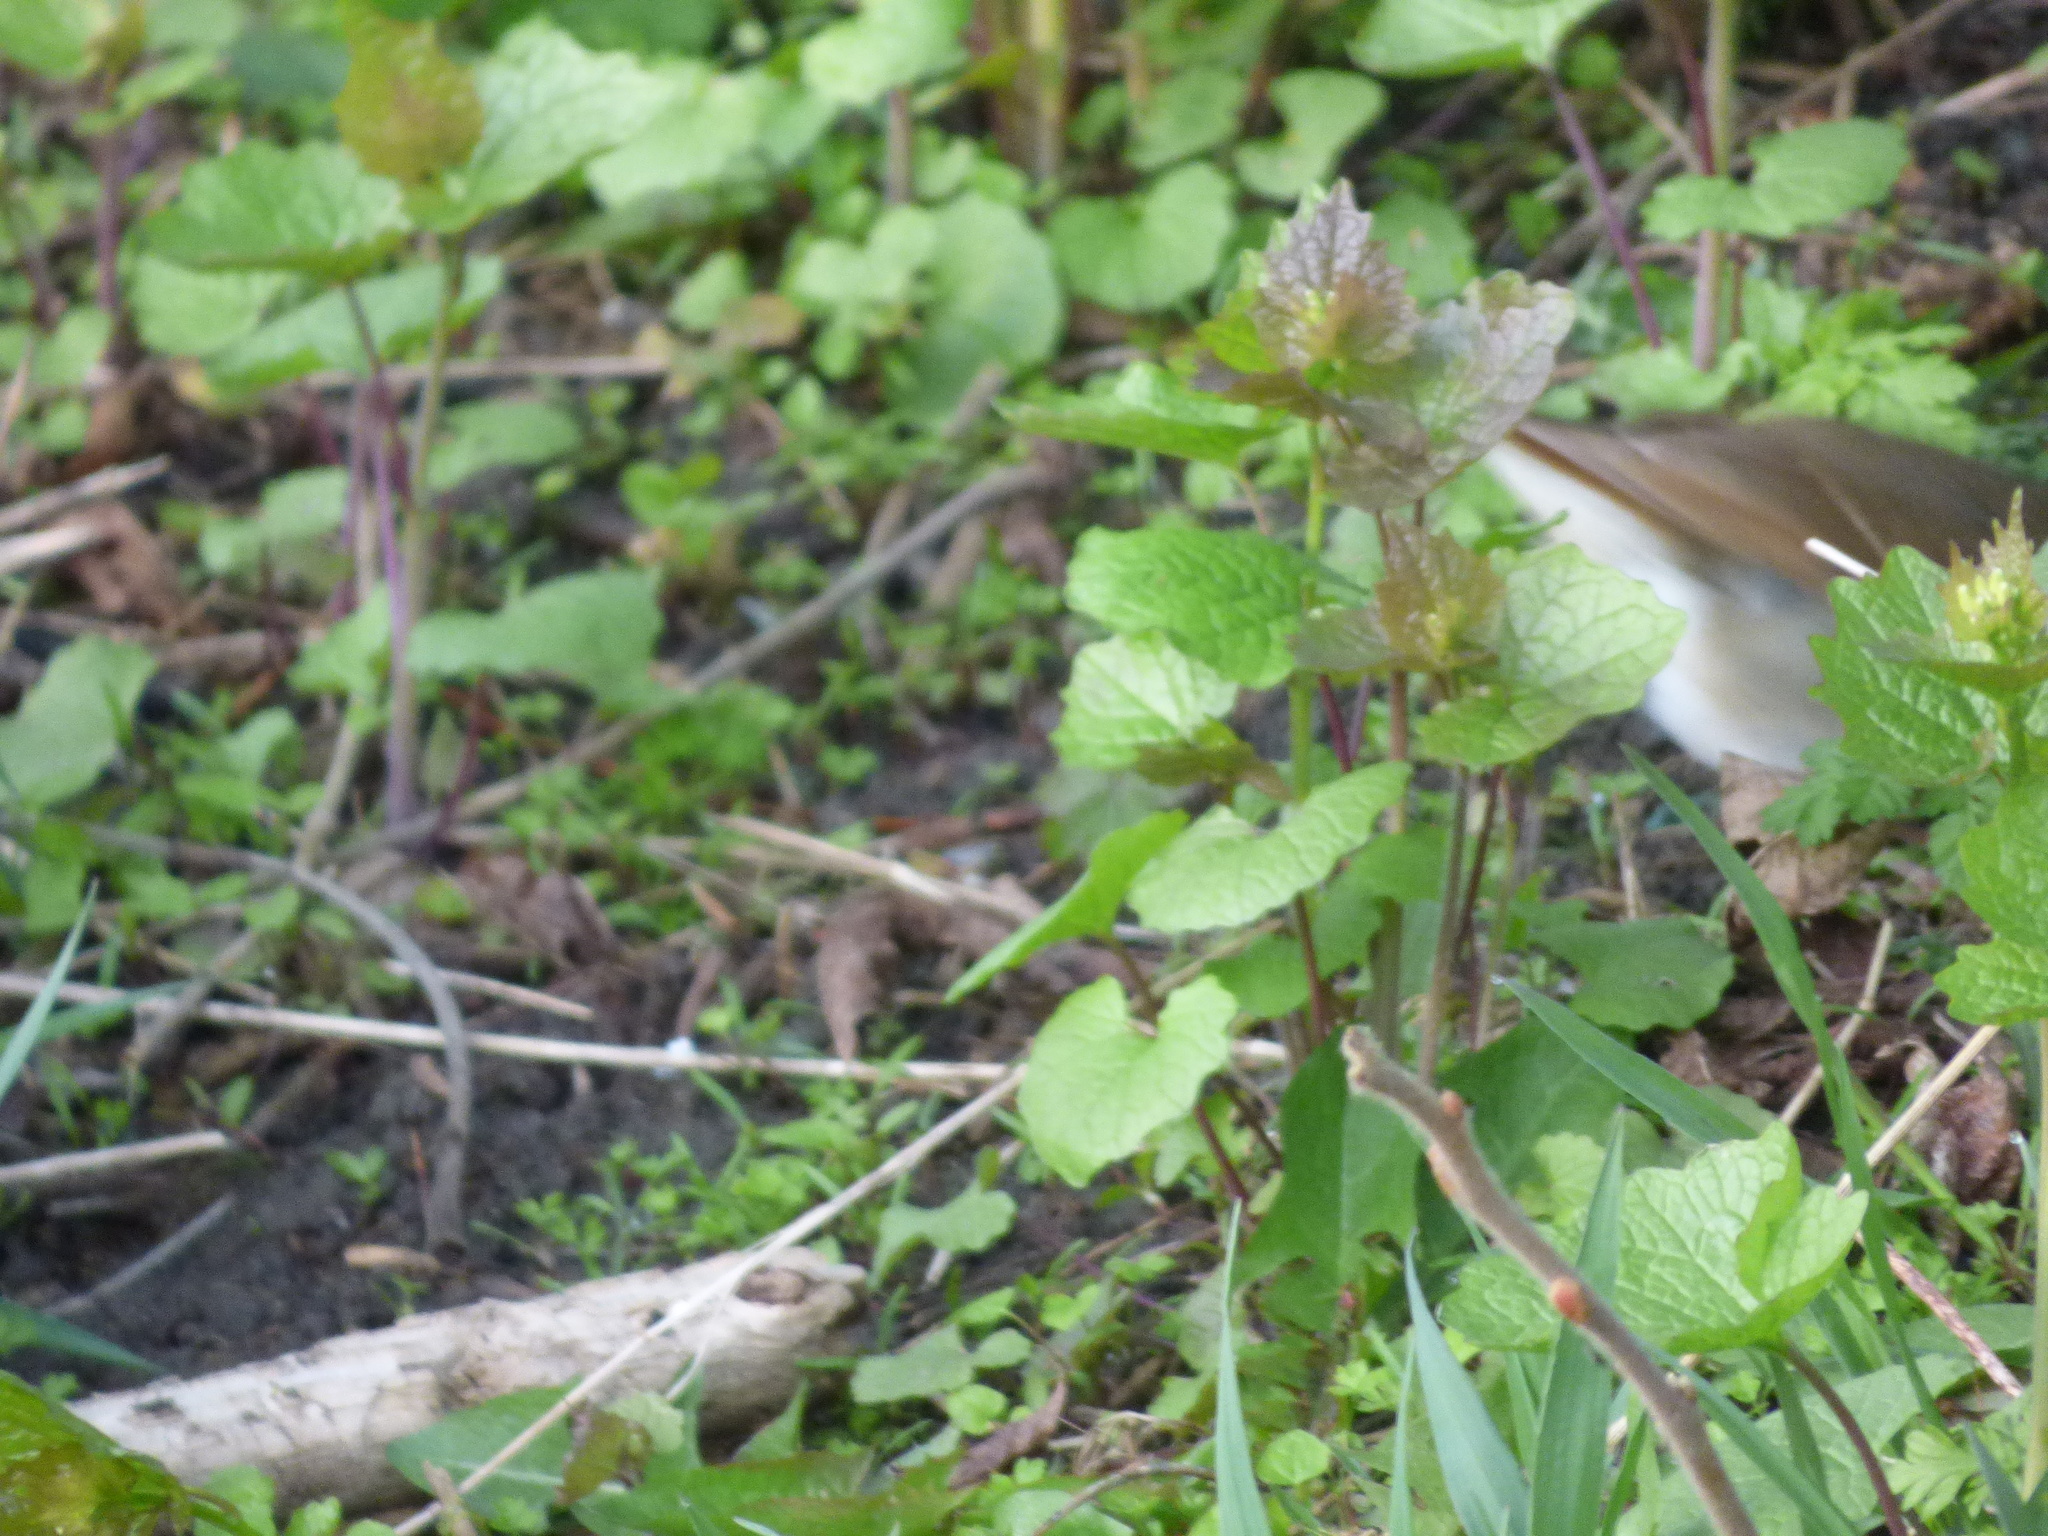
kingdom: Animalia
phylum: Chordata
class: Aves
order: Passeriformes
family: Turdidae
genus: Catharus
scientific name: Catharus guttatus
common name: Hermit thrush
